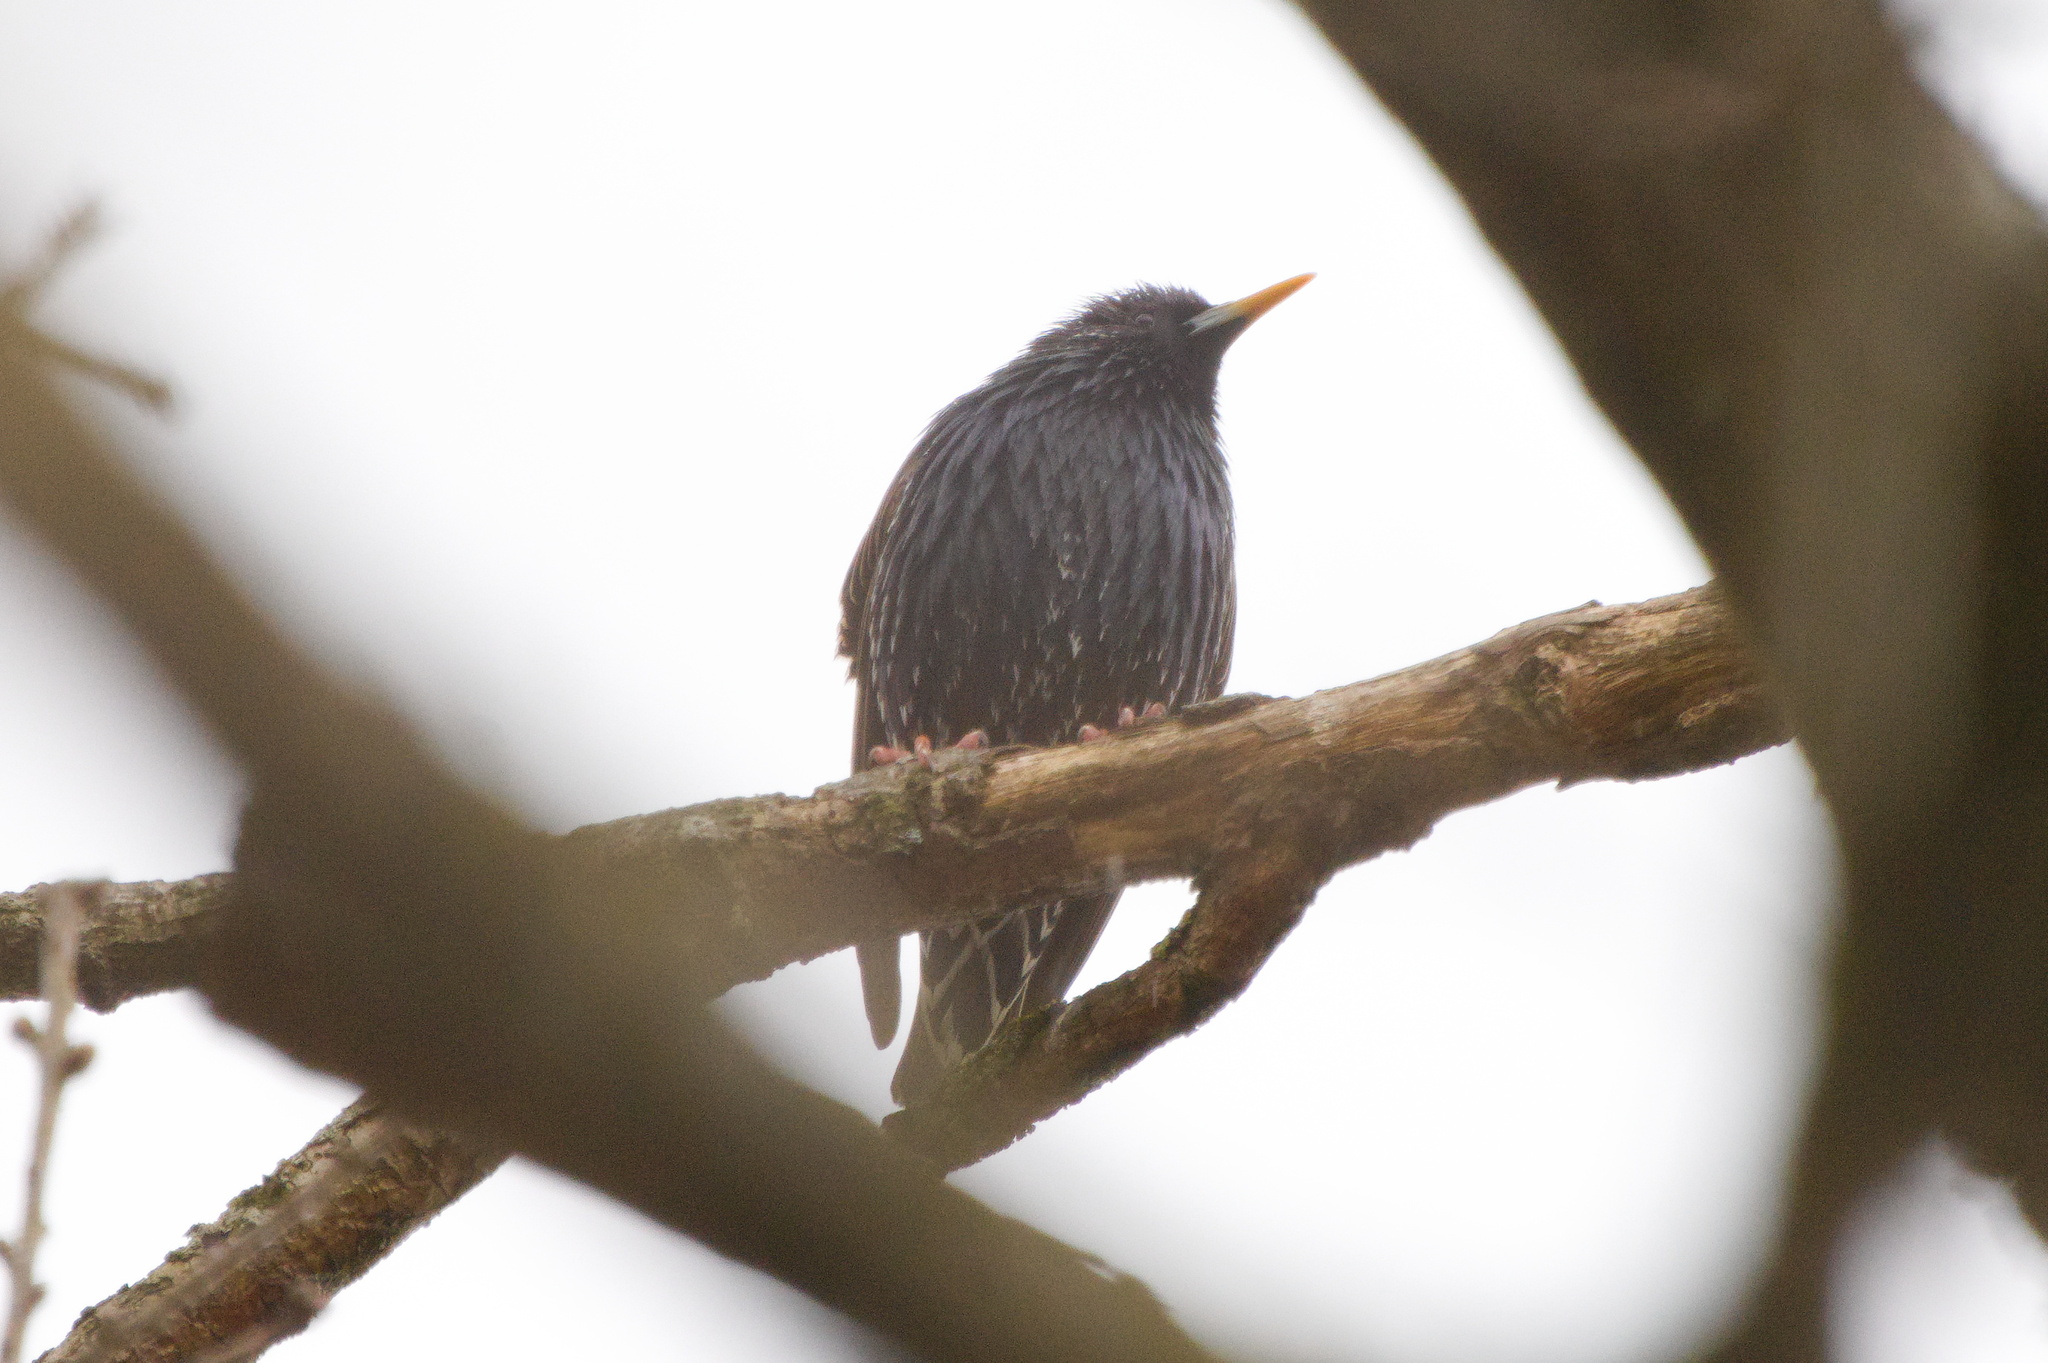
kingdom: Animalia
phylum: Chordata
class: Aves
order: Passeriformes
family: Sturnidae
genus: Sturnus
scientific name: Sturnus vulgaris
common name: Common starling
